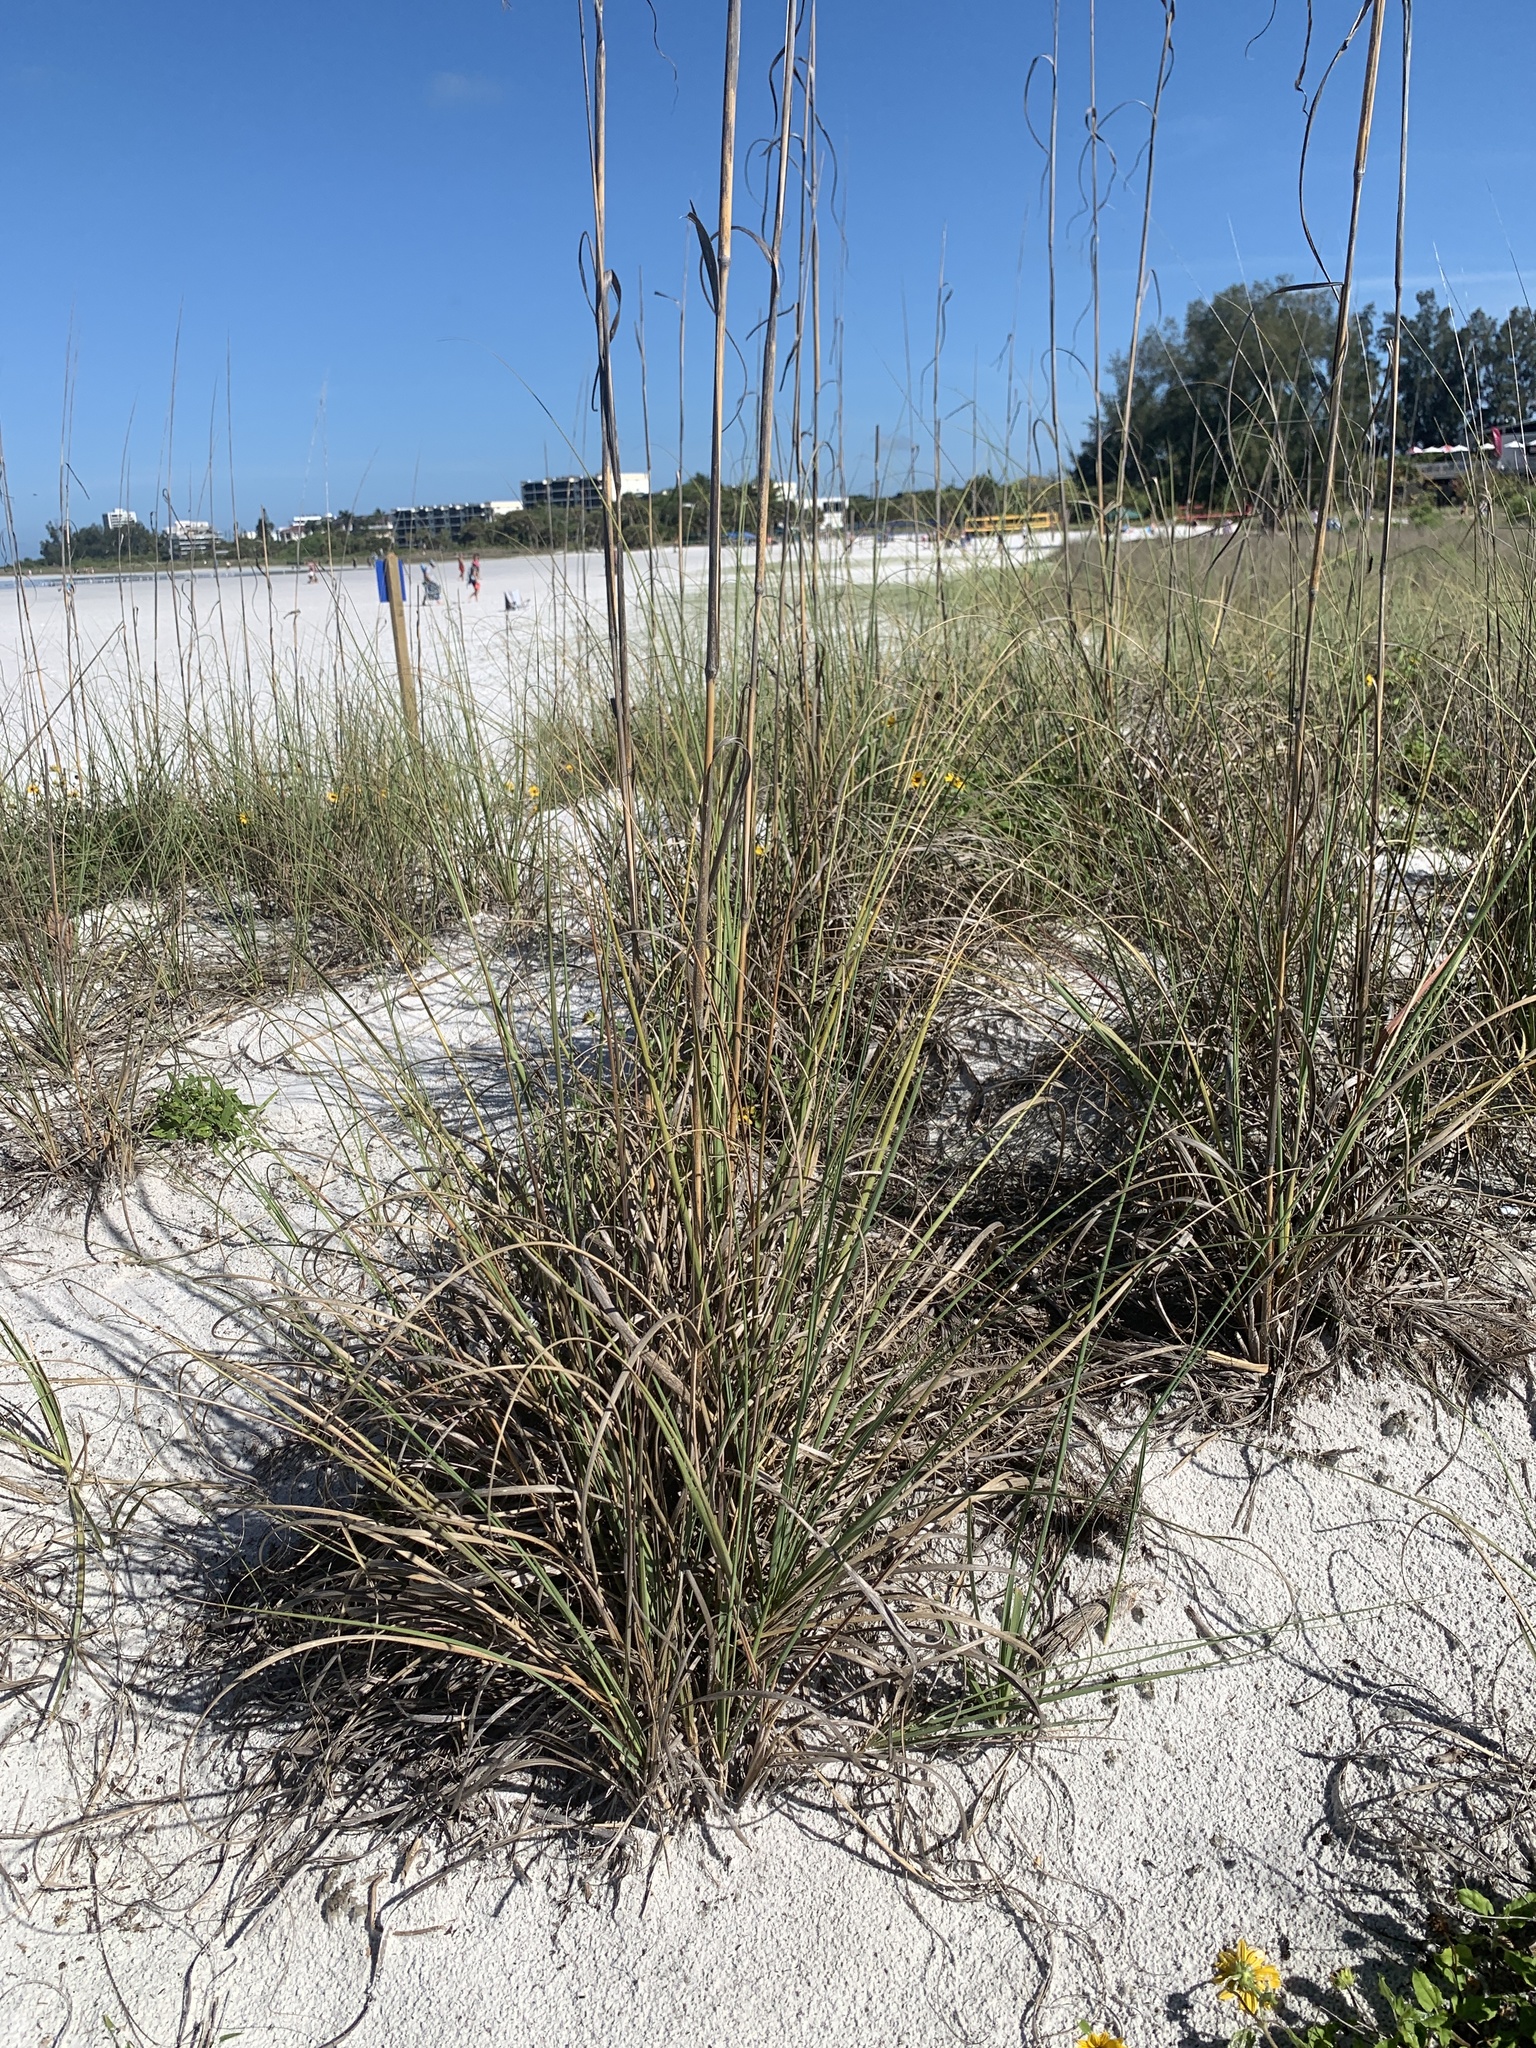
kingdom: Plantae
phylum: Tracheophyta
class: Liliopsida
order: Poales
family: Poaceae
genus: Uniola
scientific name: Uniola paniculata
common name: Seaside-oats
